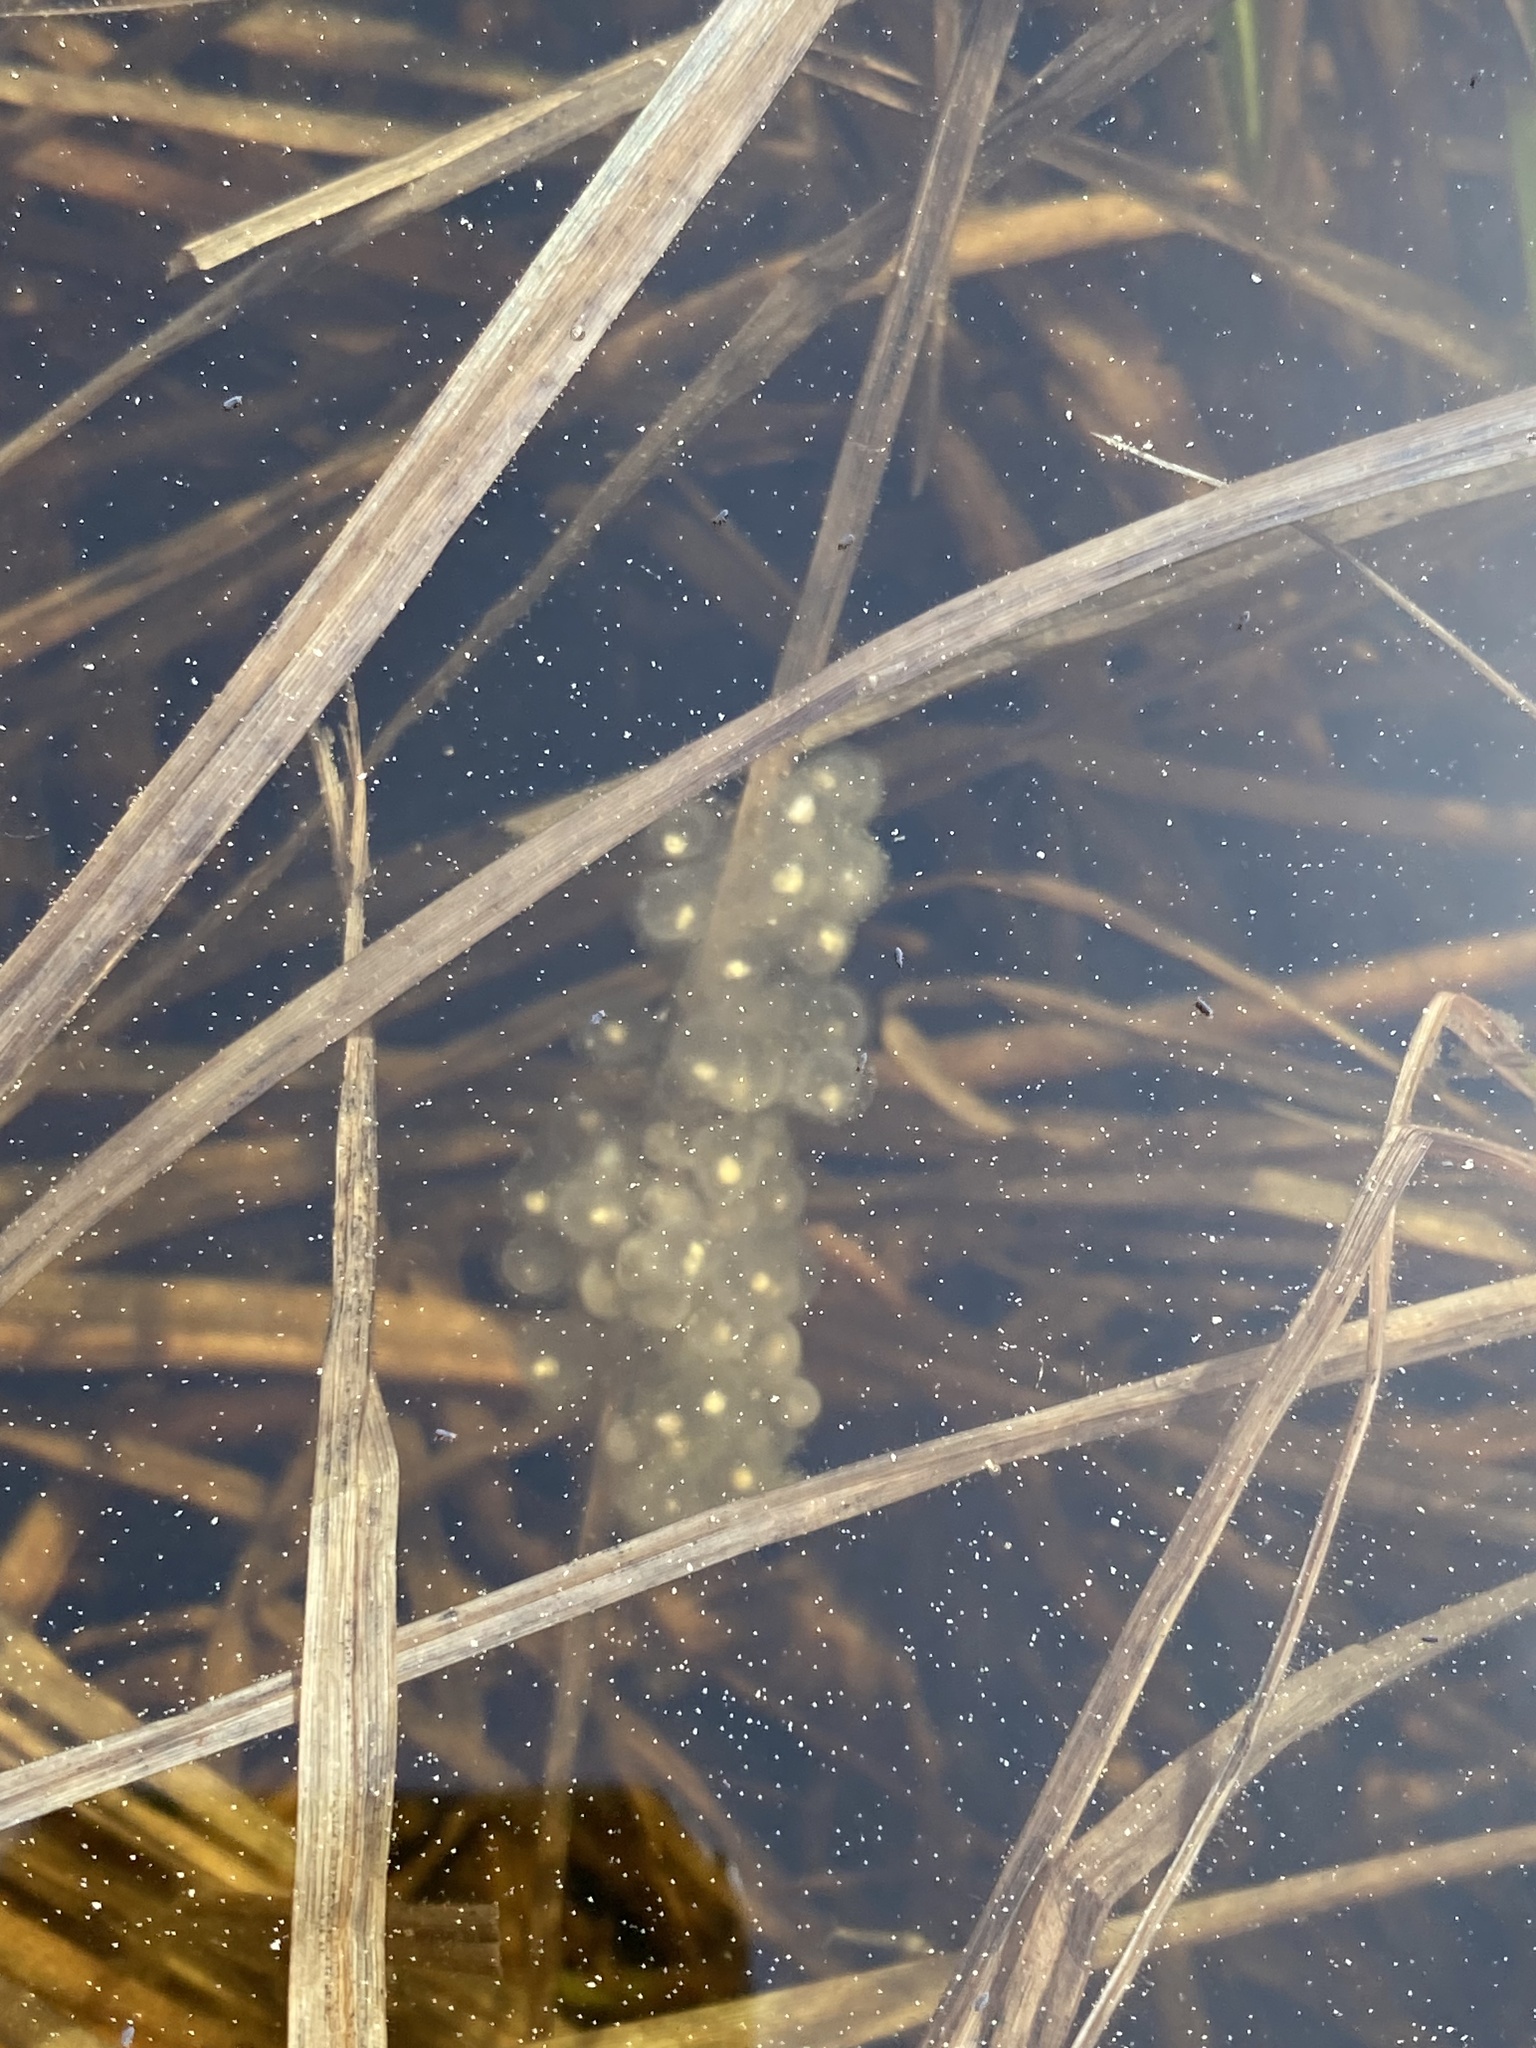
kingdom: Animalia
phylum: Chordata
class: Amphibia
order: Anura
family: Hylidae
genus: Pseudacris
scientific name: Pseudacris maculata
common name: Boreal chorus frog
